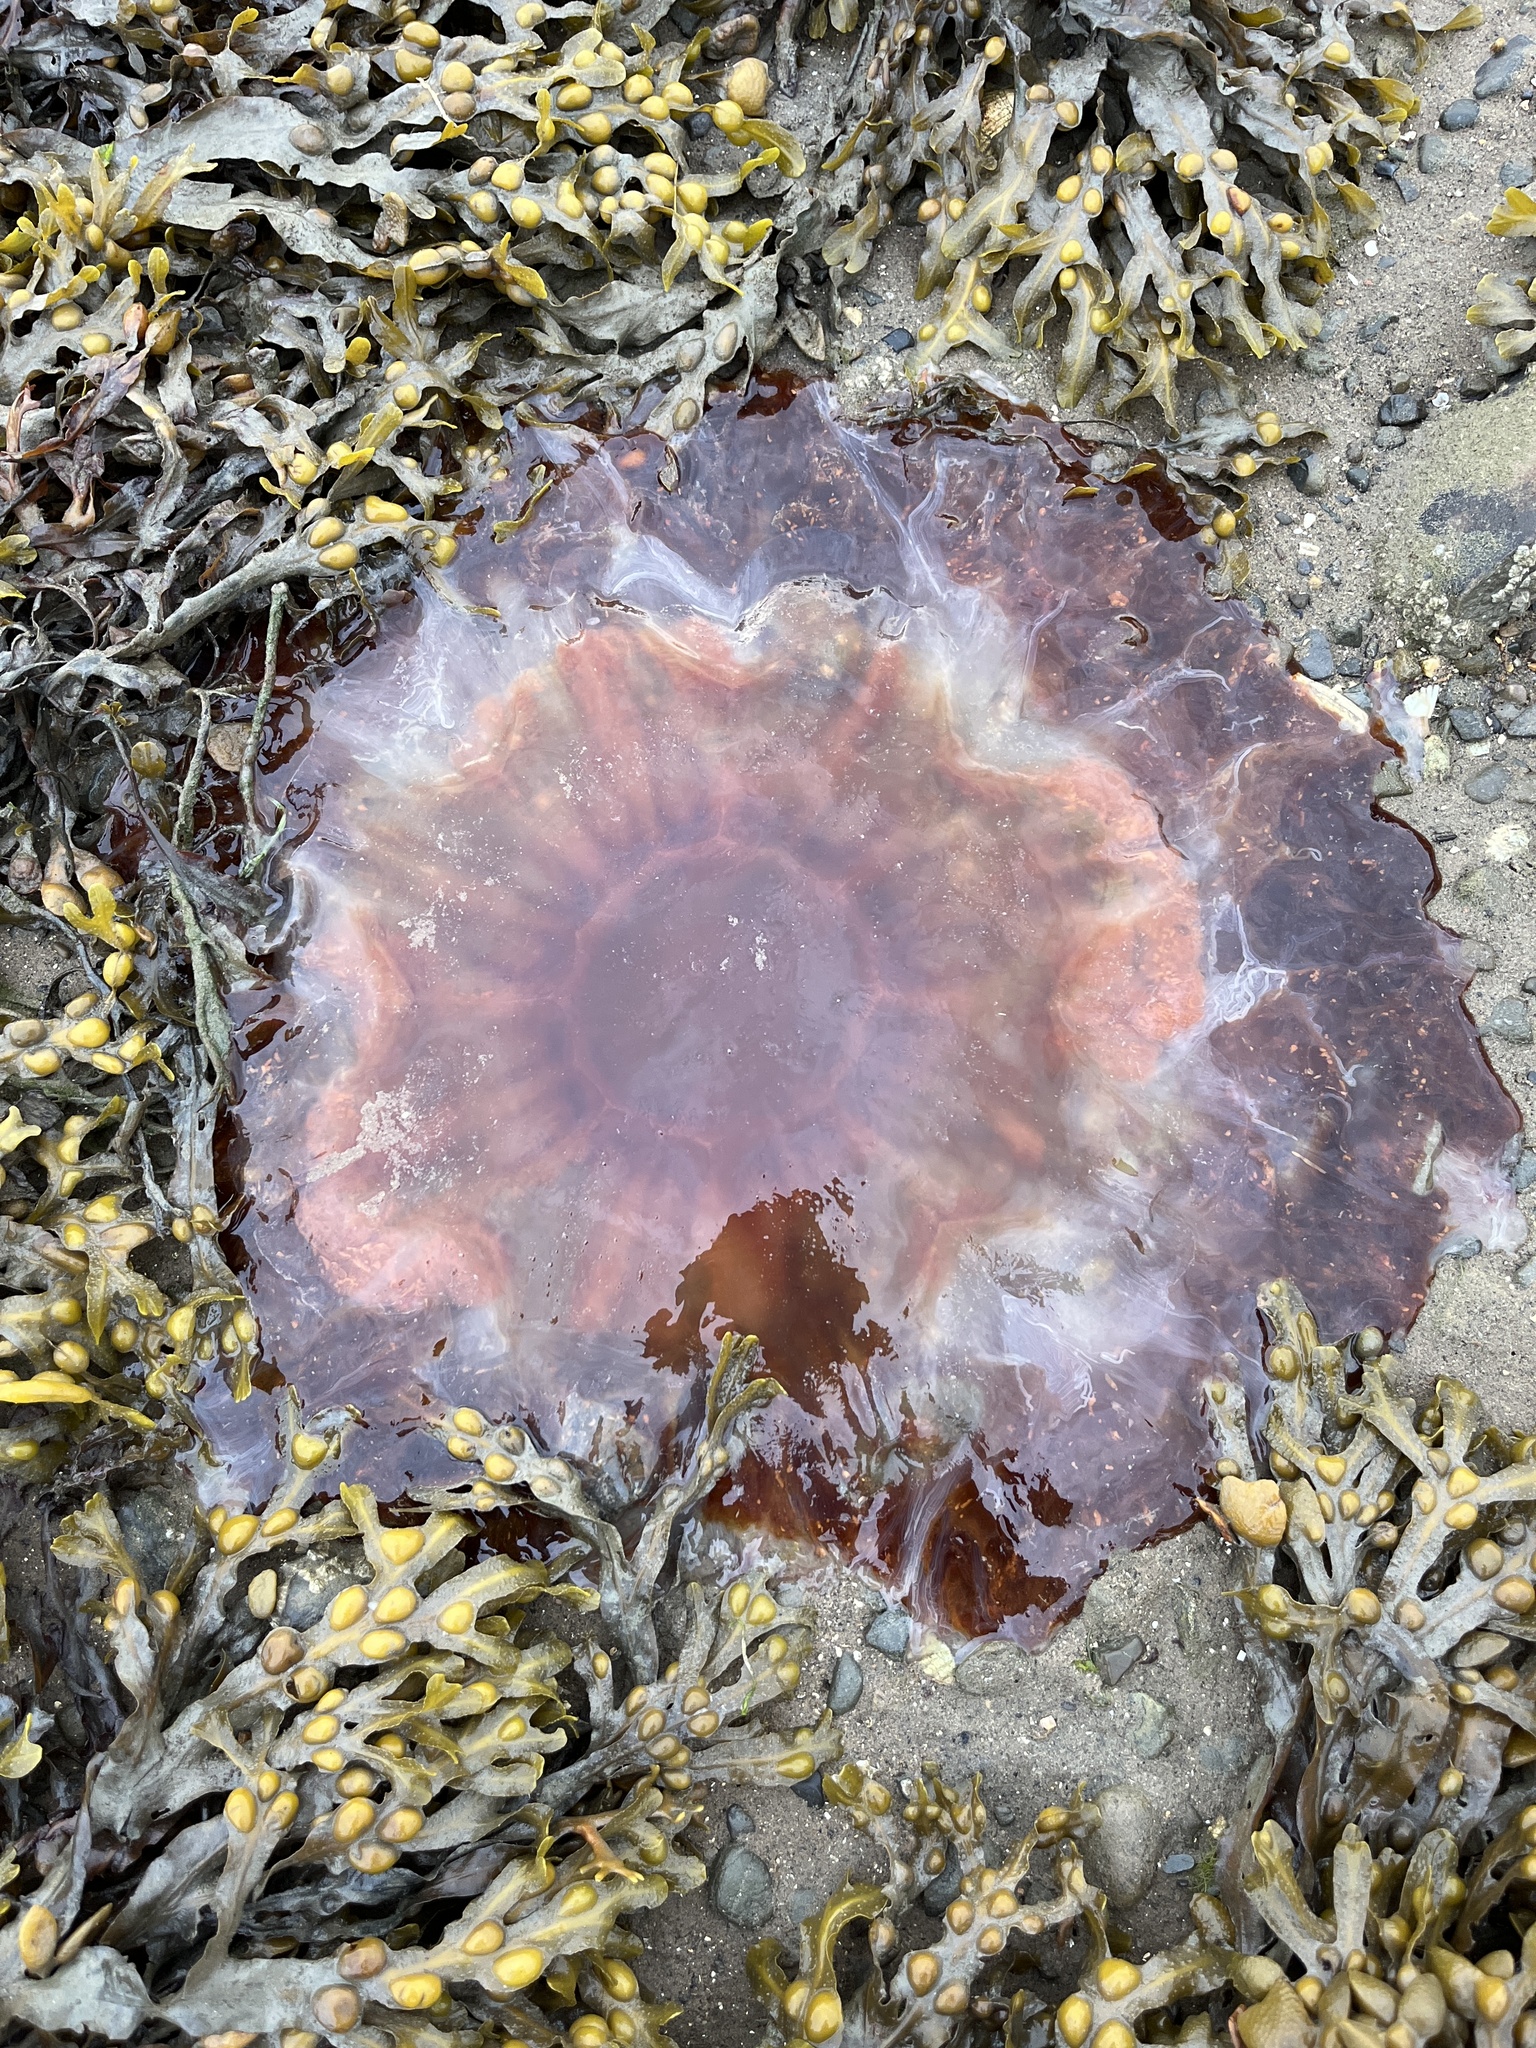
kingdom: Animalia
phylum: Cnidaria
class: Scyphozoa
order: Semaeostomeae
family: Cyaneidae
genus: Cyanea
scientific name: Cyanea capillata
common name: Lion's mane jellyfish
